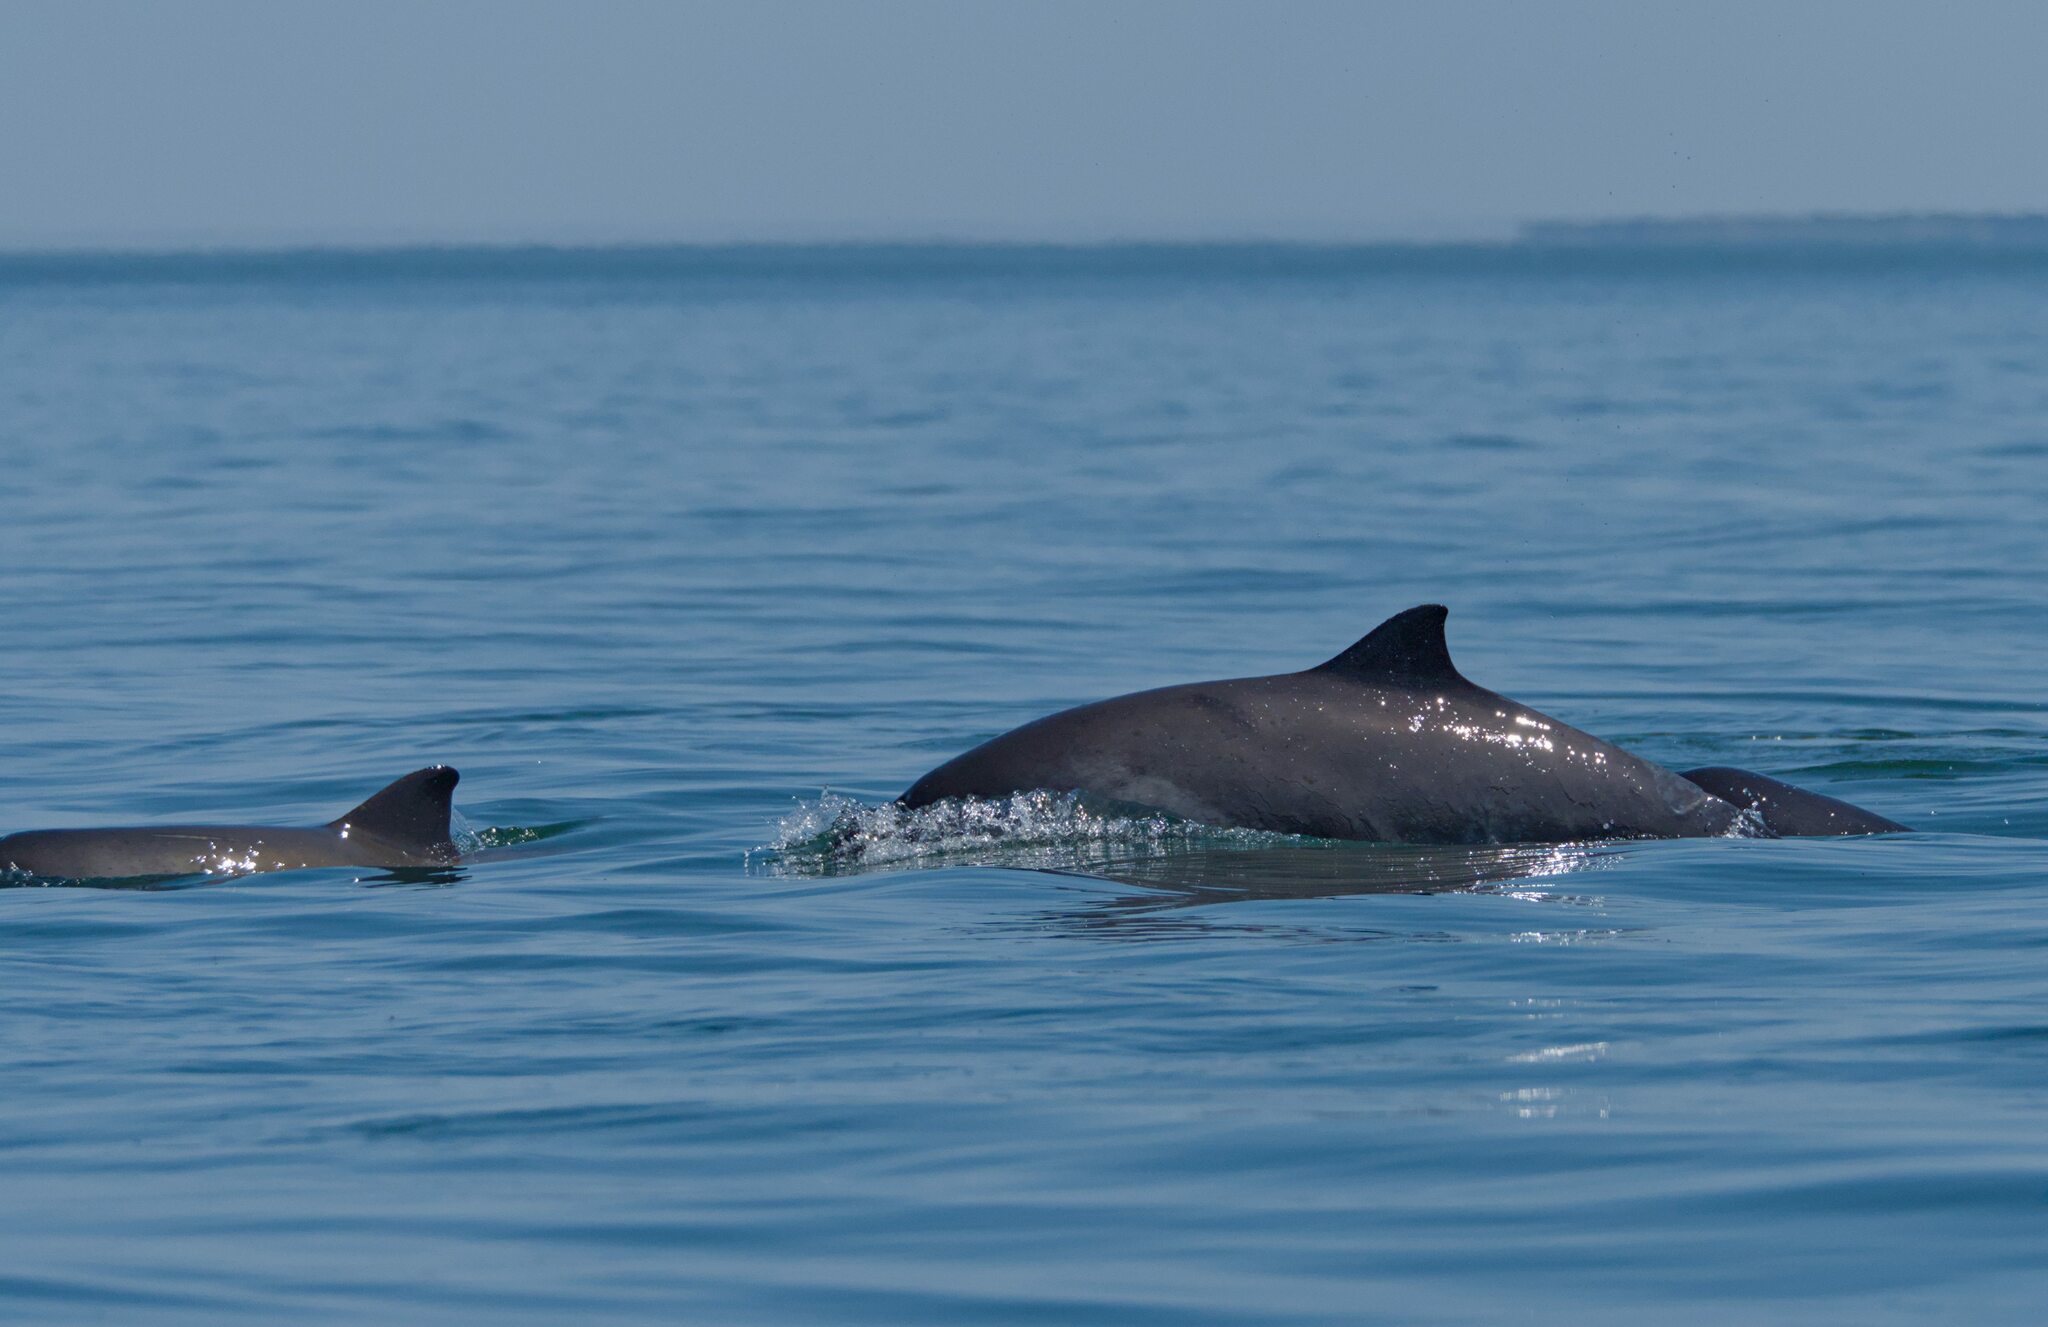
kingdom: Animalia
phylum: Chordata
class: Mammalia
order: Cetacea
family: Phocoenidae
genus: Phocoena
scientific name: Phocoena phocoena
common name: Harbor porpoise
